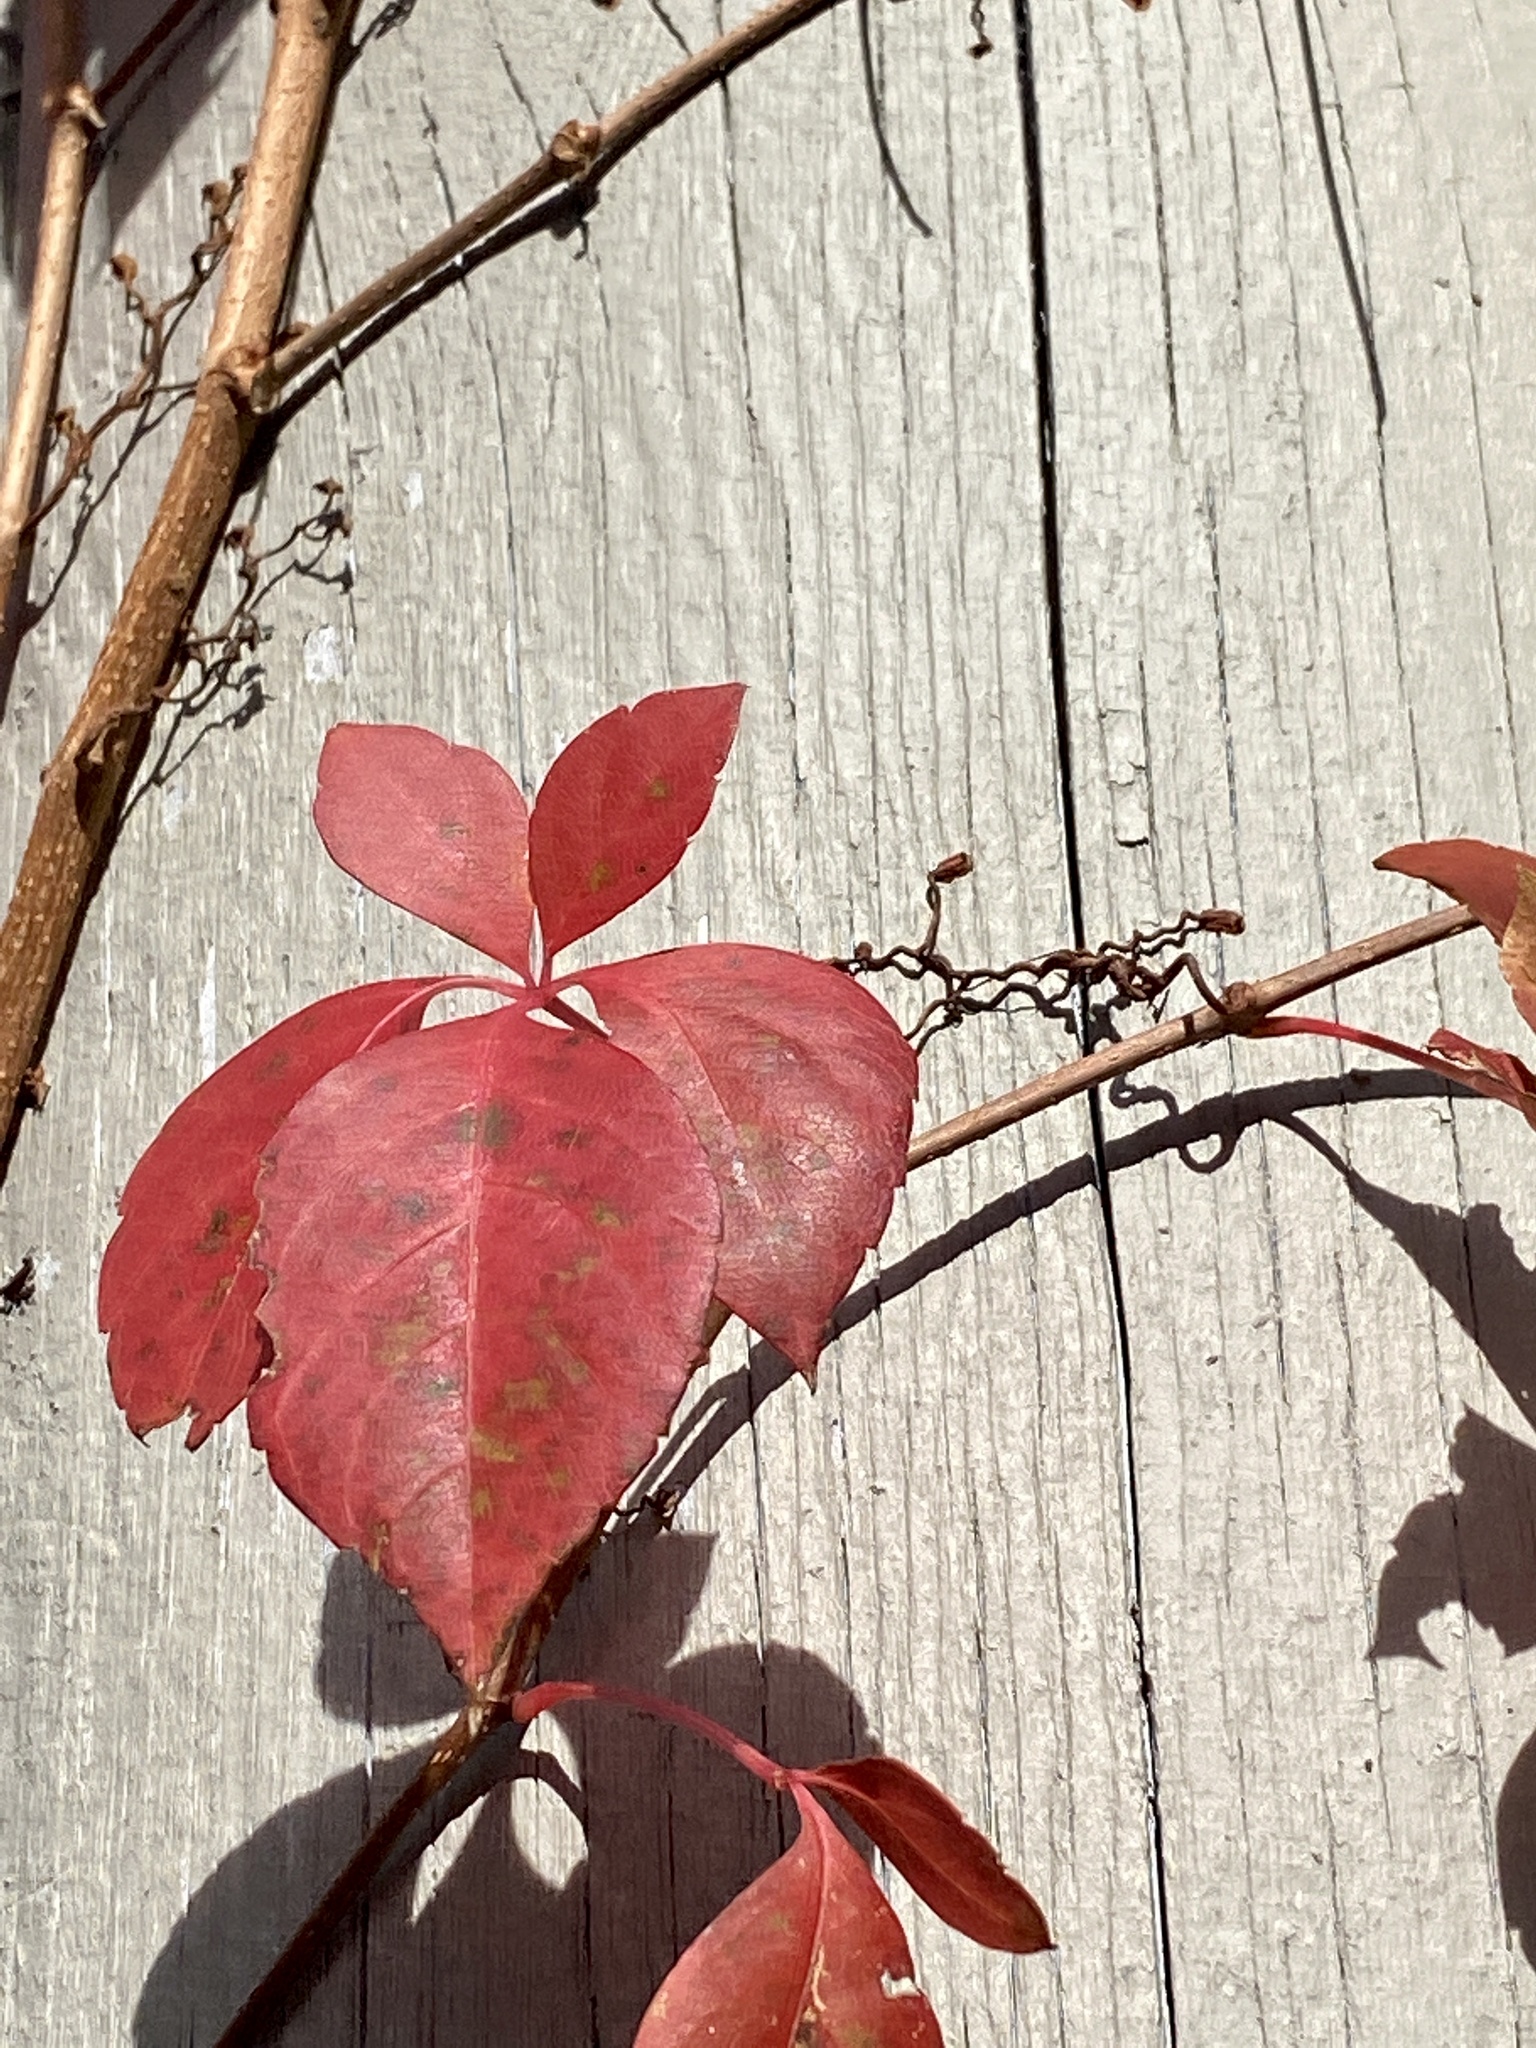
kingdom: Plantae
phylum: Tracheophyta
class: Magnoliopsida
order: Vitales
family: Vitaceae
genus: Parthenocissus
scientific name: Parthenocissus quinquefolia
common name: Virginia-creeper
